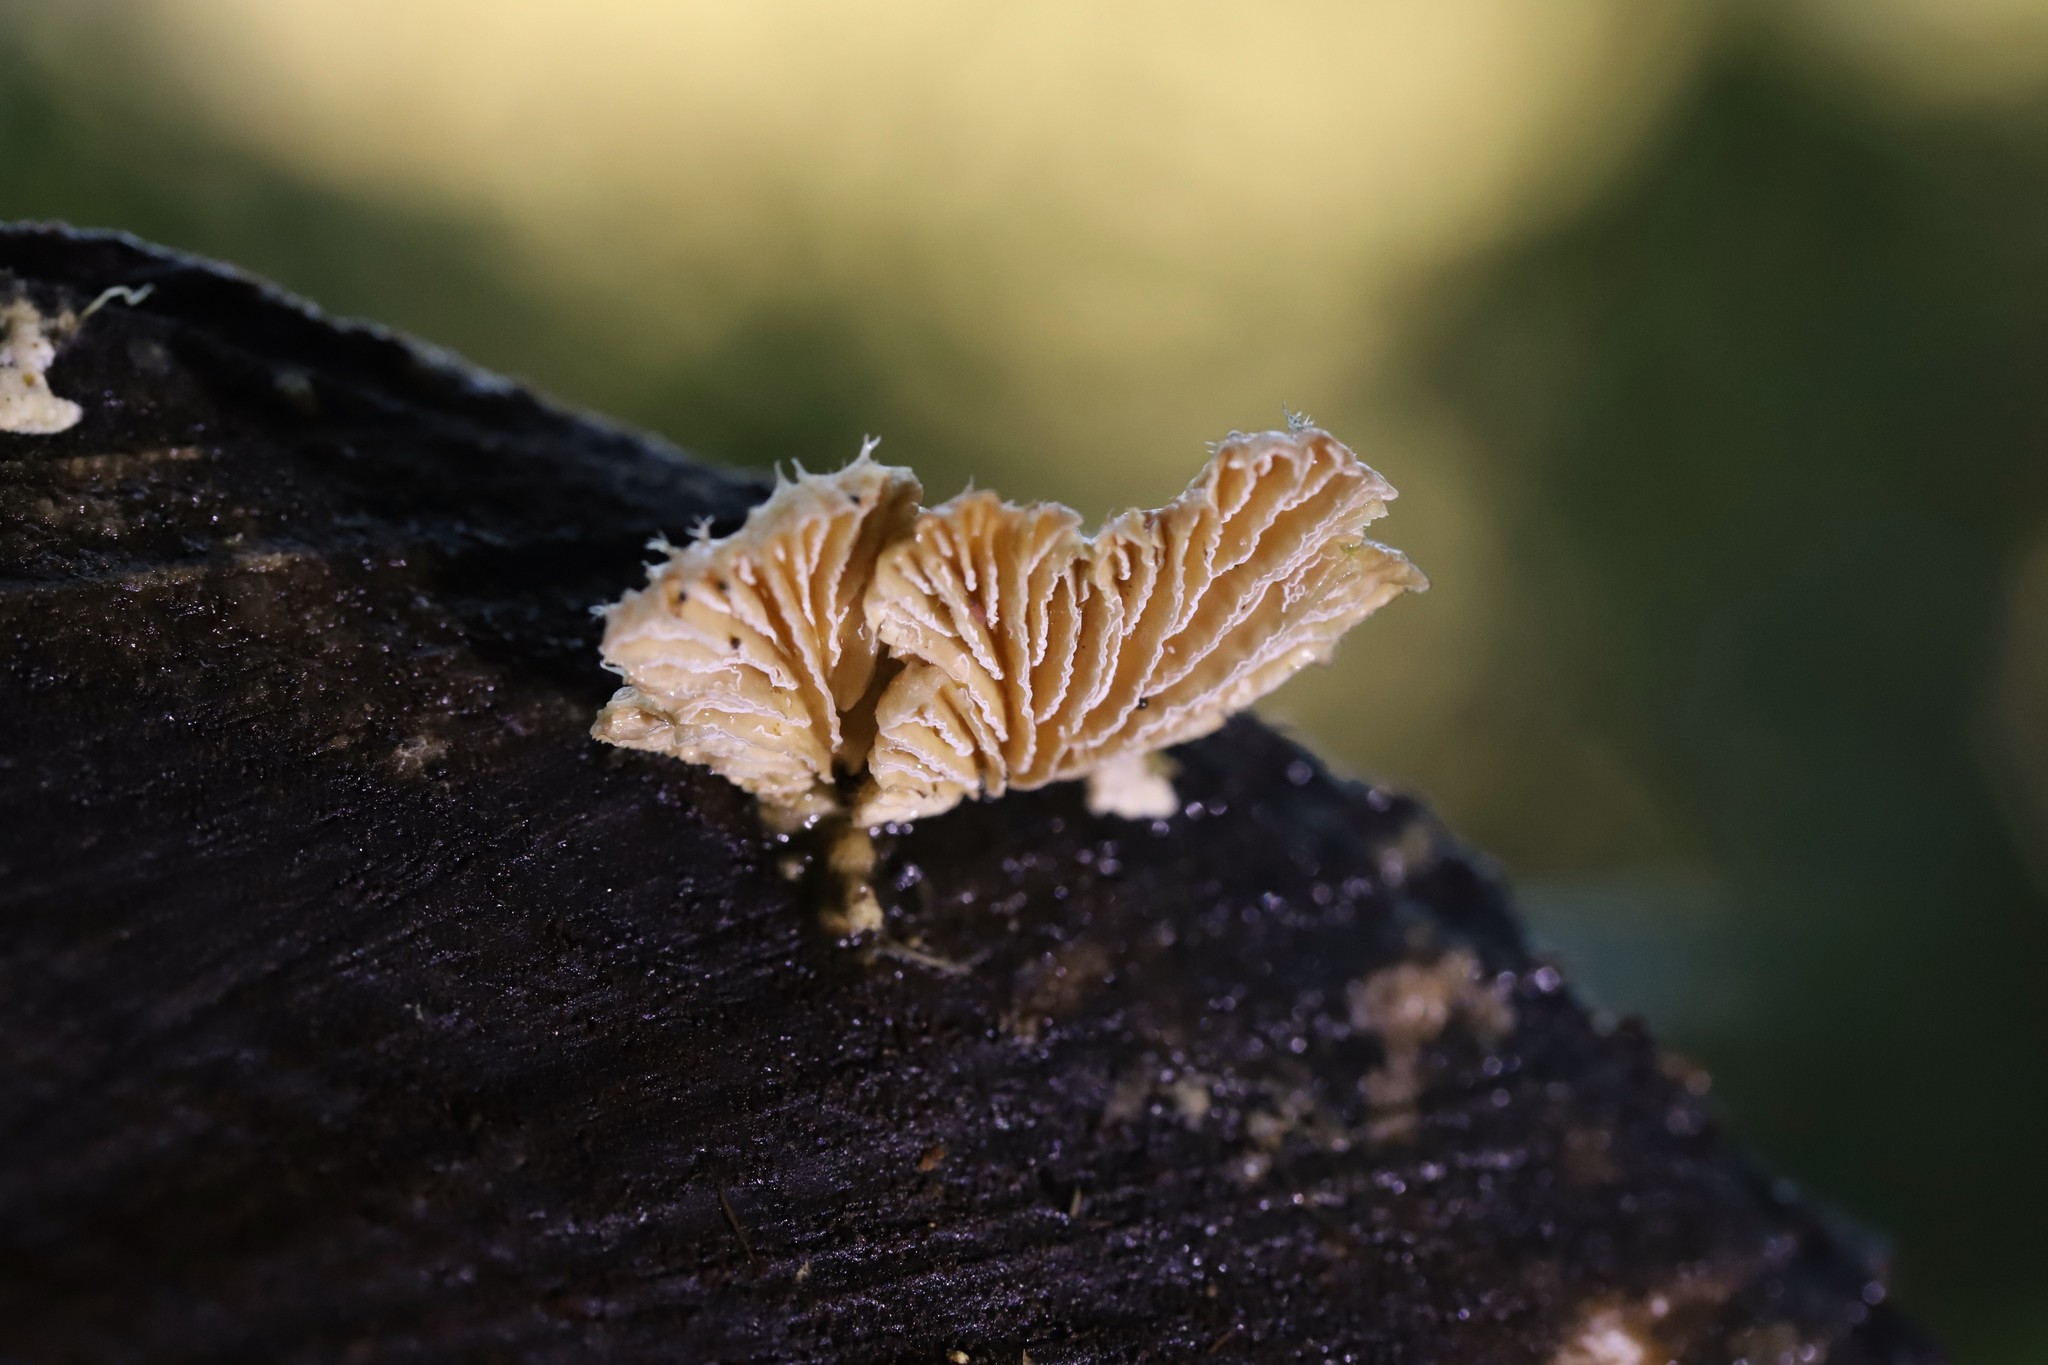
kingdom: Fungi
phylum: Basidiomycota
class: Agaricomycetes
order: Agaricales
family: Schizophyllaceae
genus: Schizophyllum
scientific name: Schizophyllum commune
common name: Common porecrust
